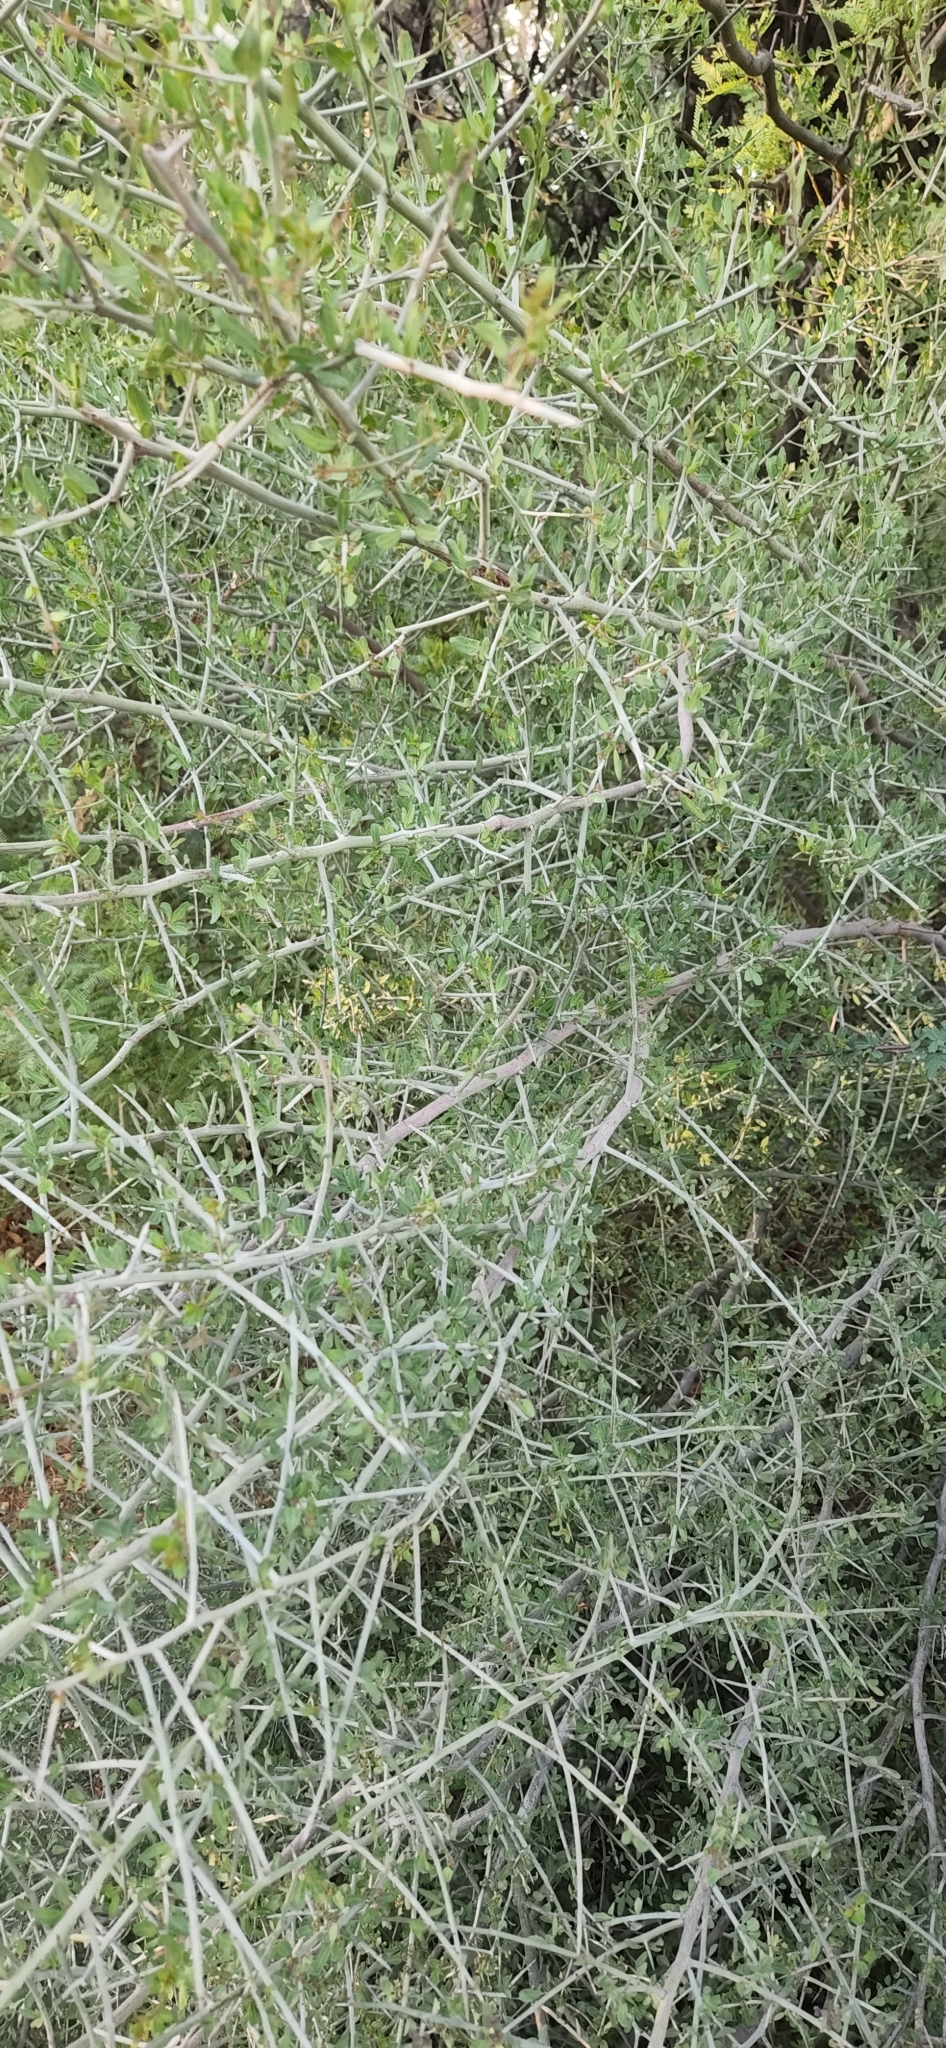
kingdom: Plantae
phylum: Tracheophyta
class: Magnoliopsida
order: Rosales
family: Rhamnaceae
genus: Sarcomphalus
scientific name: Sarcomphalus obtusifolius
